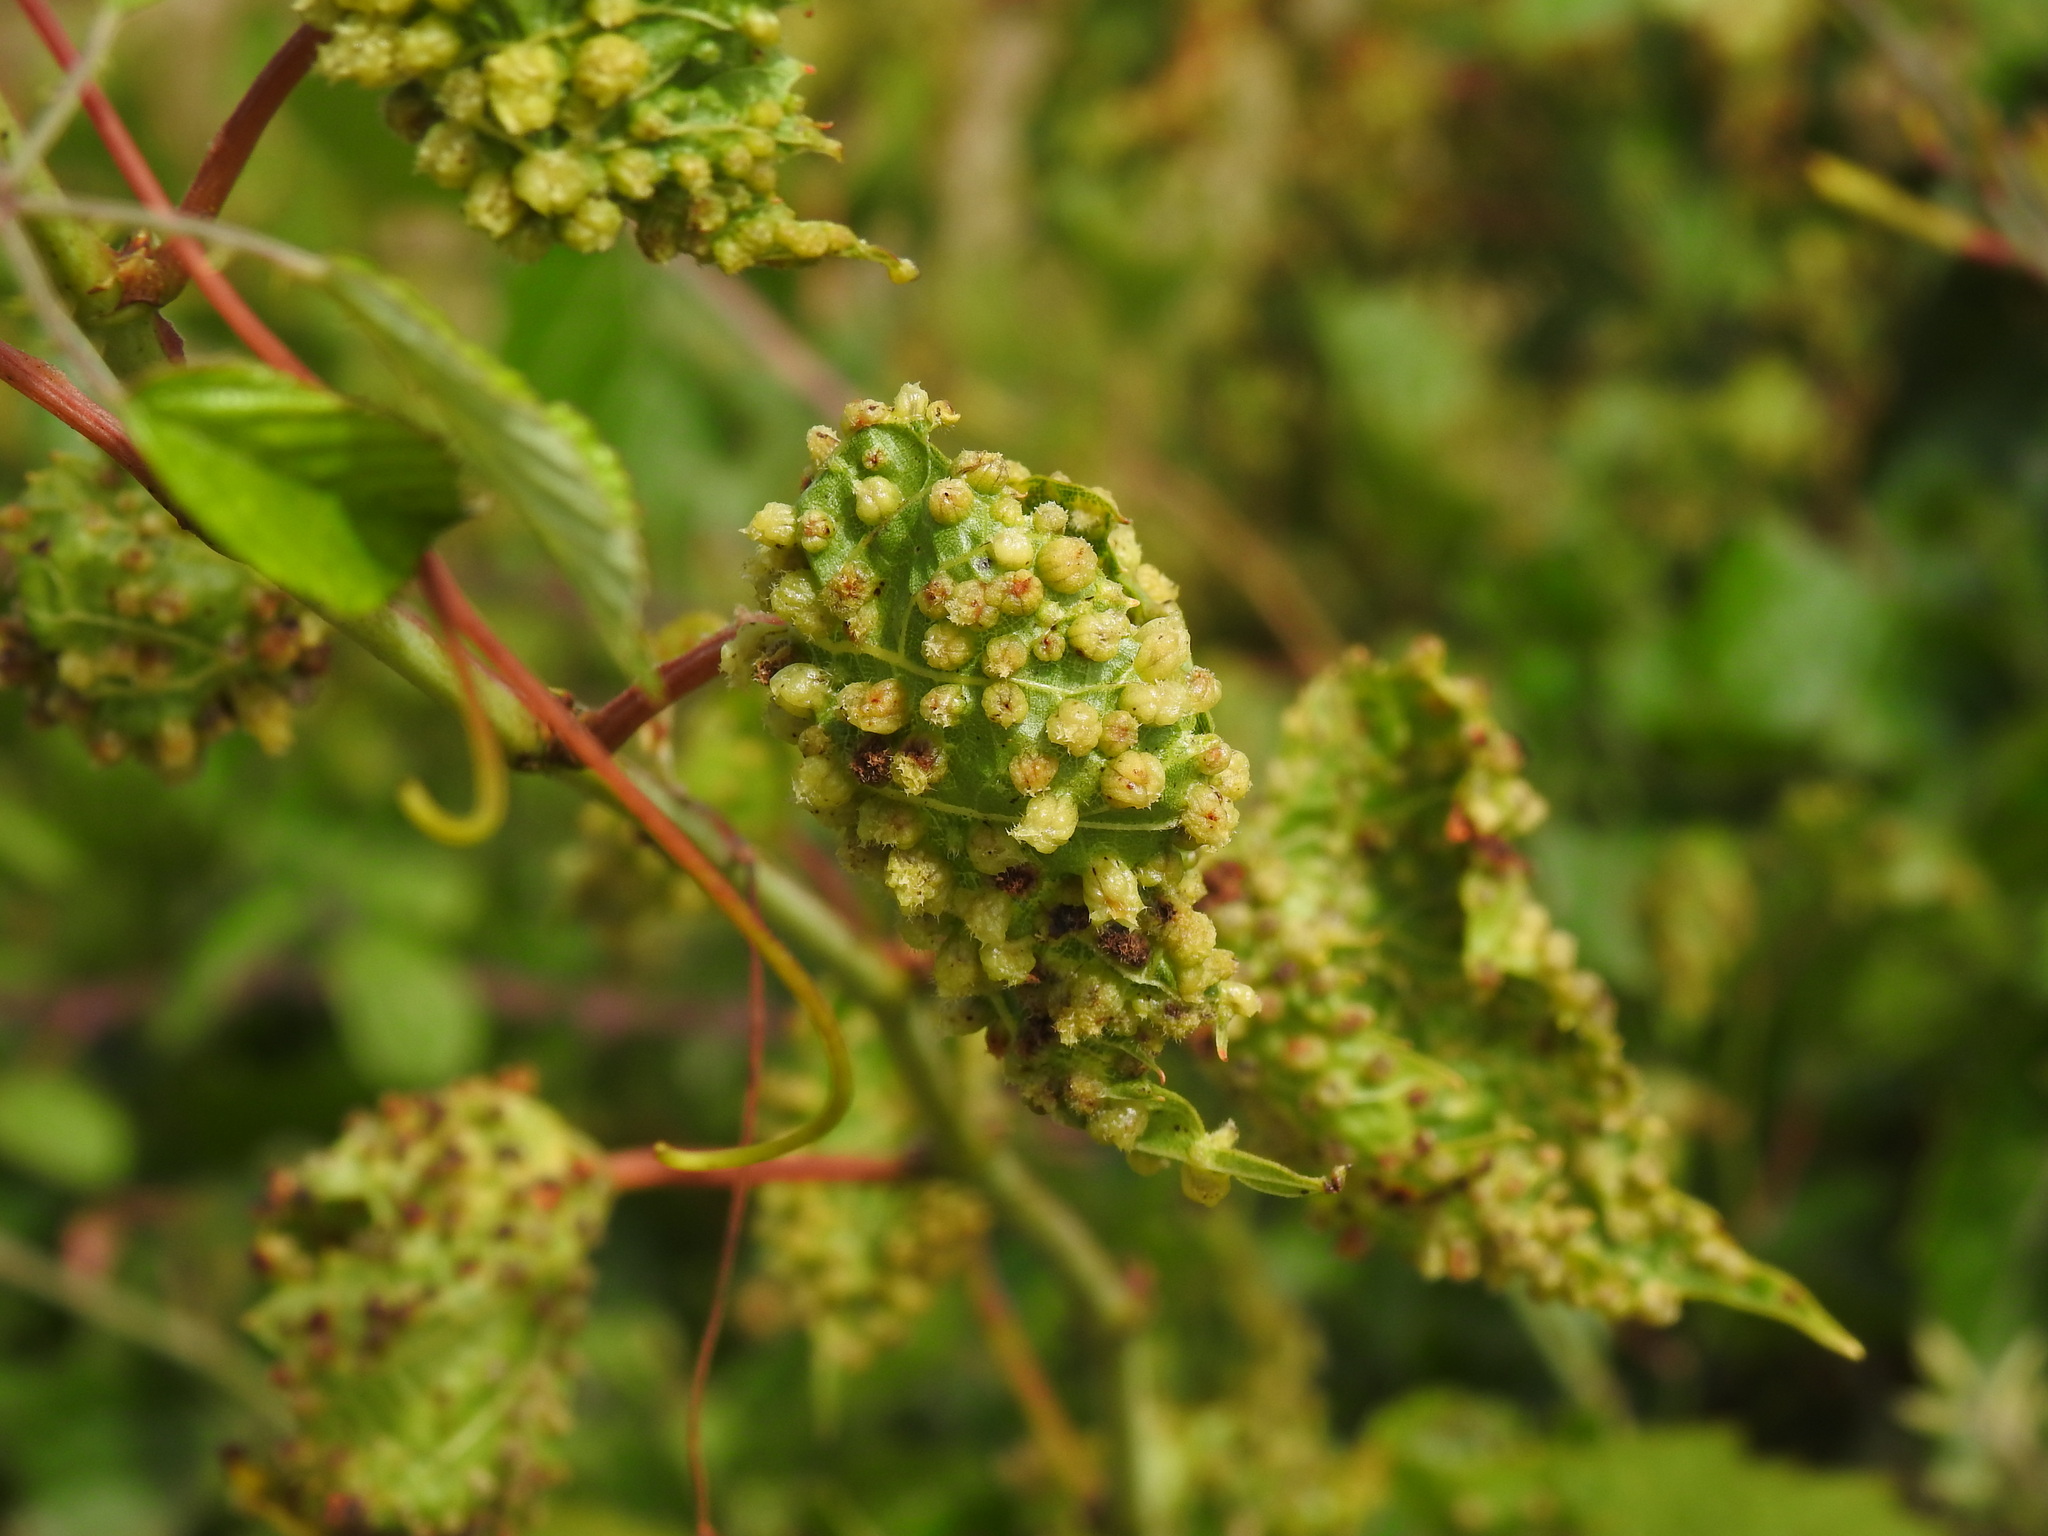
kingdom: Animalia
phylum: Arthropoda
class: Insecta
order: Hemiptera
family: Phylloxeridae
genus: Daktulosphaira
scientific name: Daktulosphaira vitifoliae
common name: Grape phylloxera
